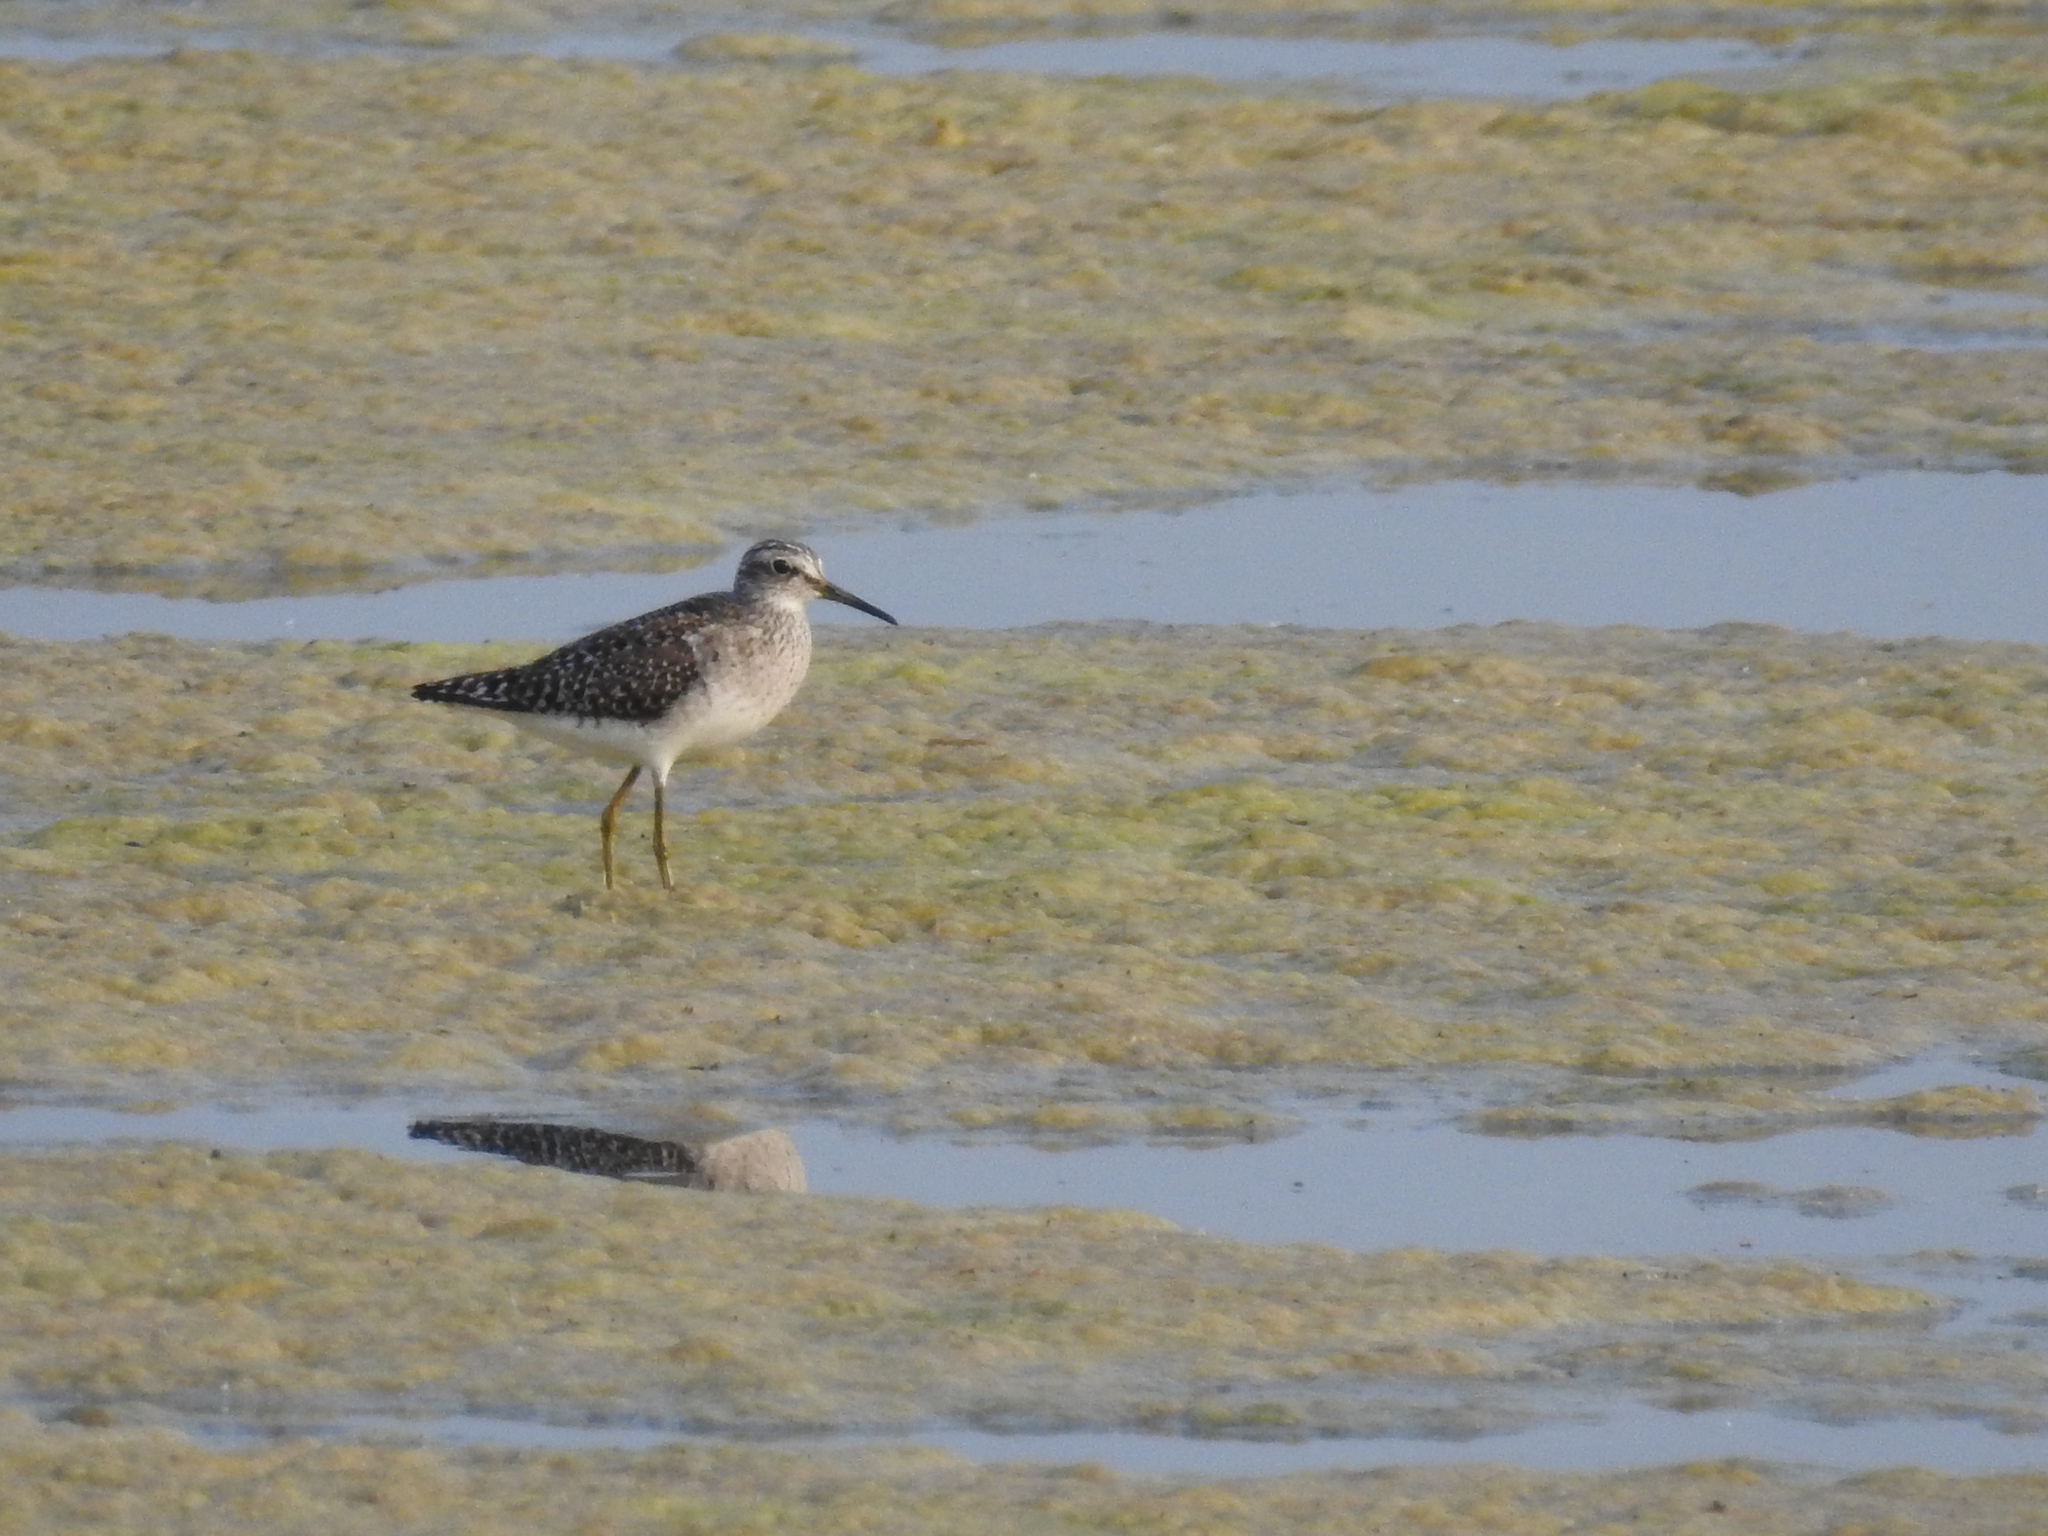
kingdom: Animalia
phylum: Chordata
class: Aves
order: Charadriiformes
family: Scolopacidae
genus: Tringa
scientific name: Tringa glareola
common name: Wood sandpiper
